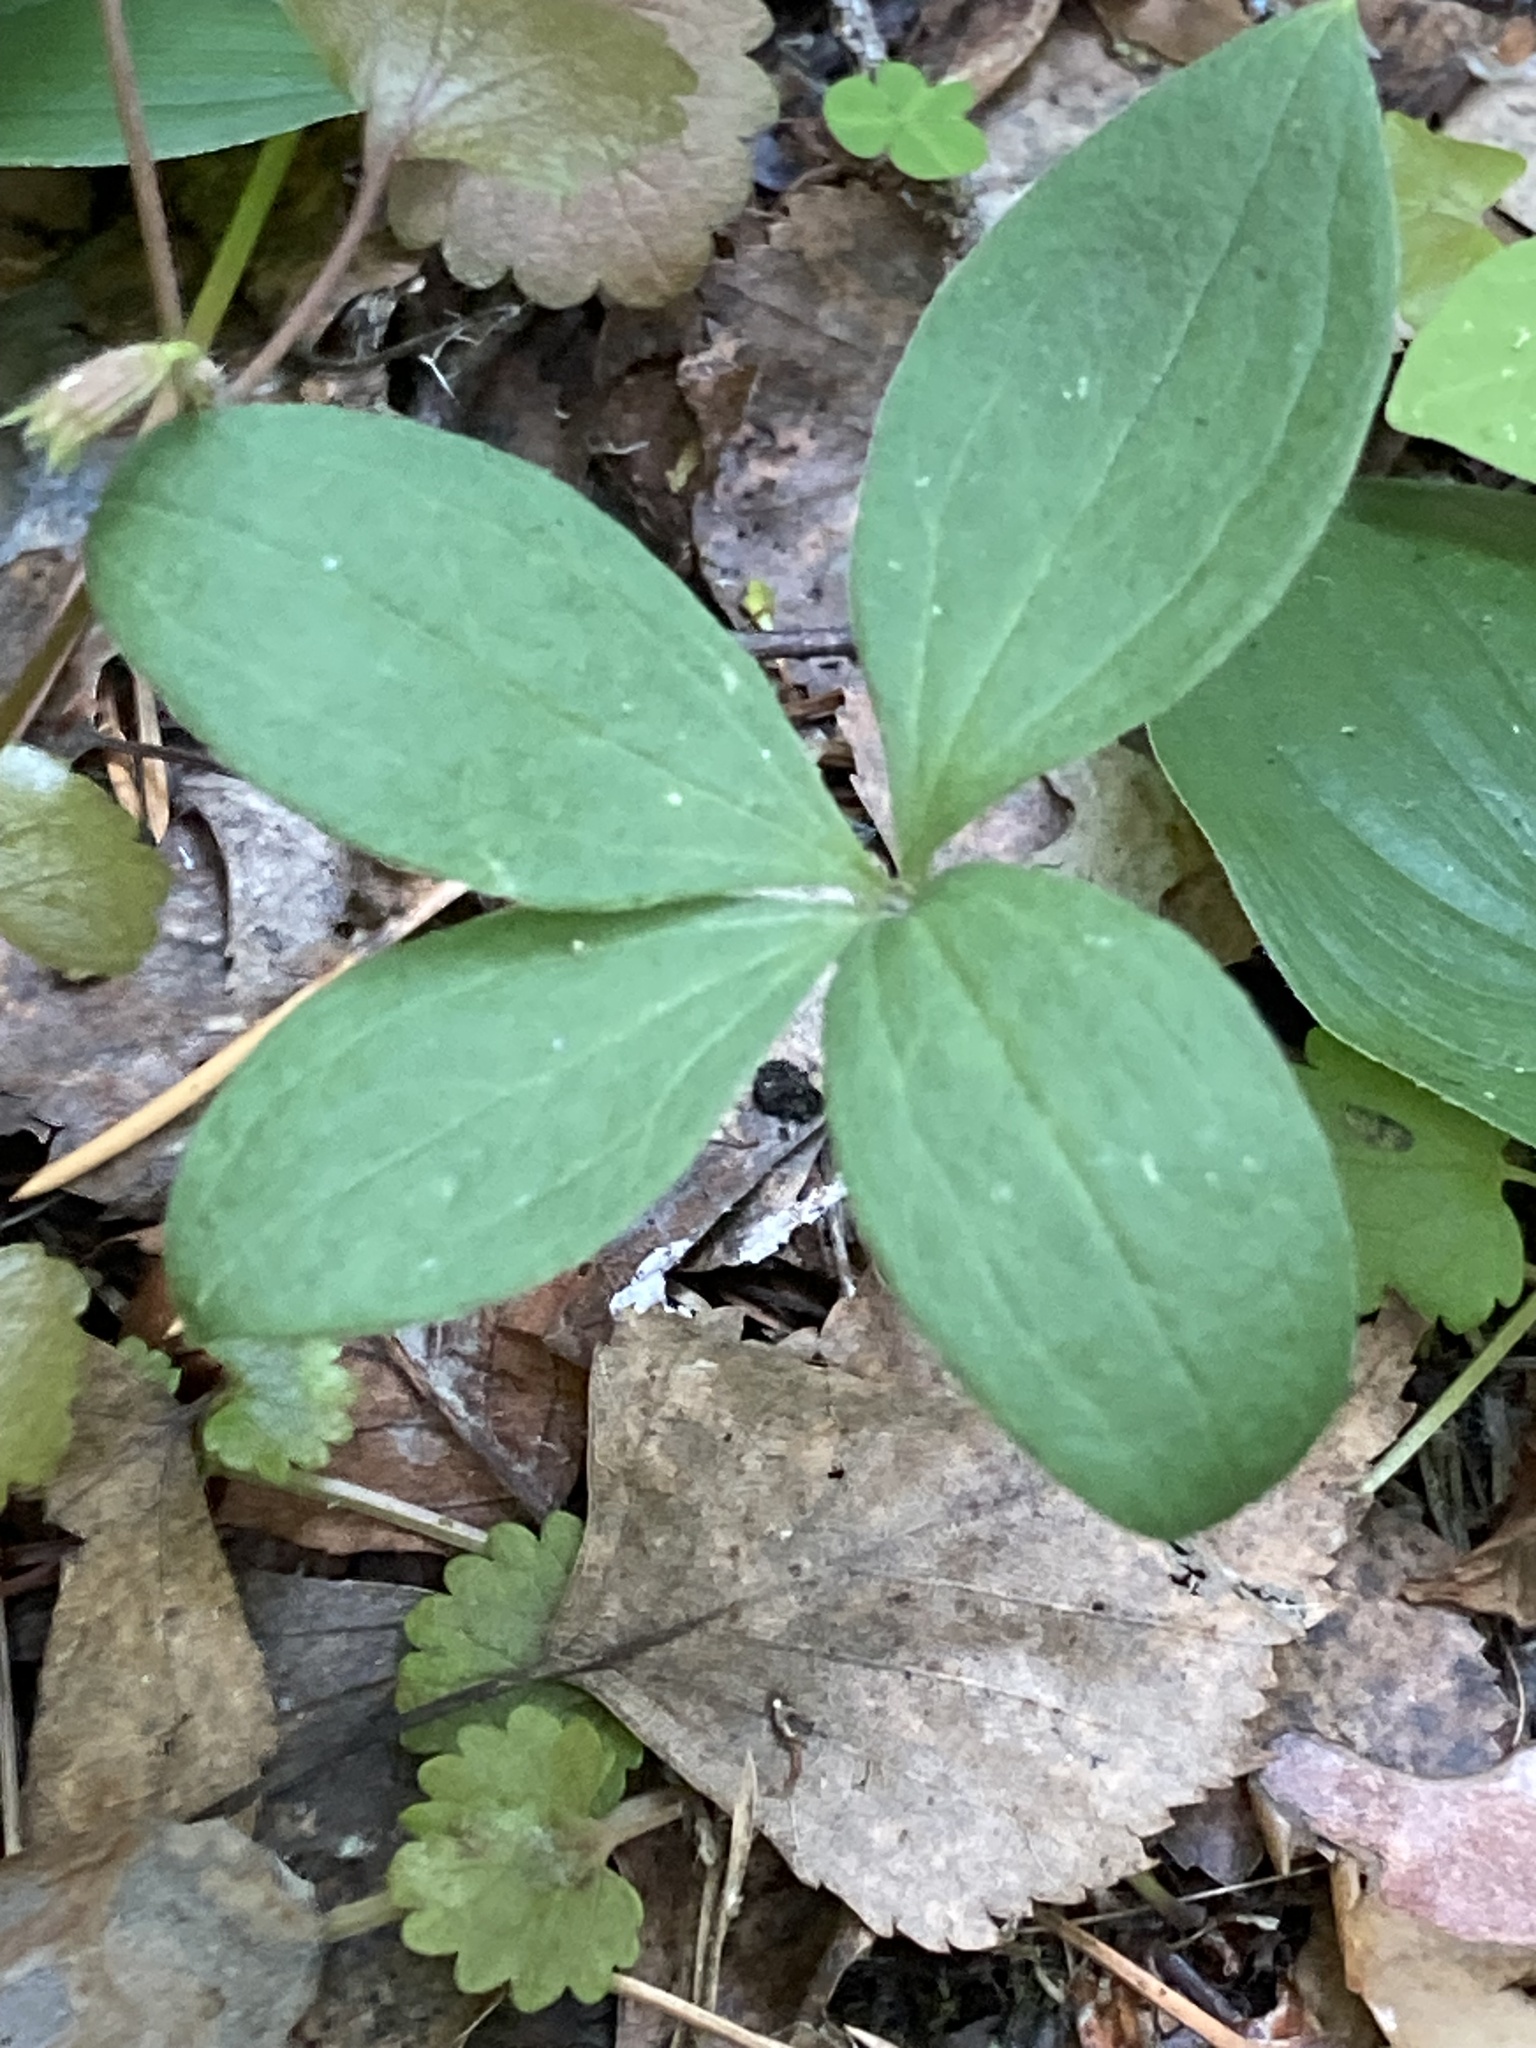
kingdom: Plantae
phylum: Tracheophyta
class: Liliopsida
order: Liliales
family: Melanthiaceae
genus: Paris
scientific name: Paris quadrifolia
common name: Herb-paris
